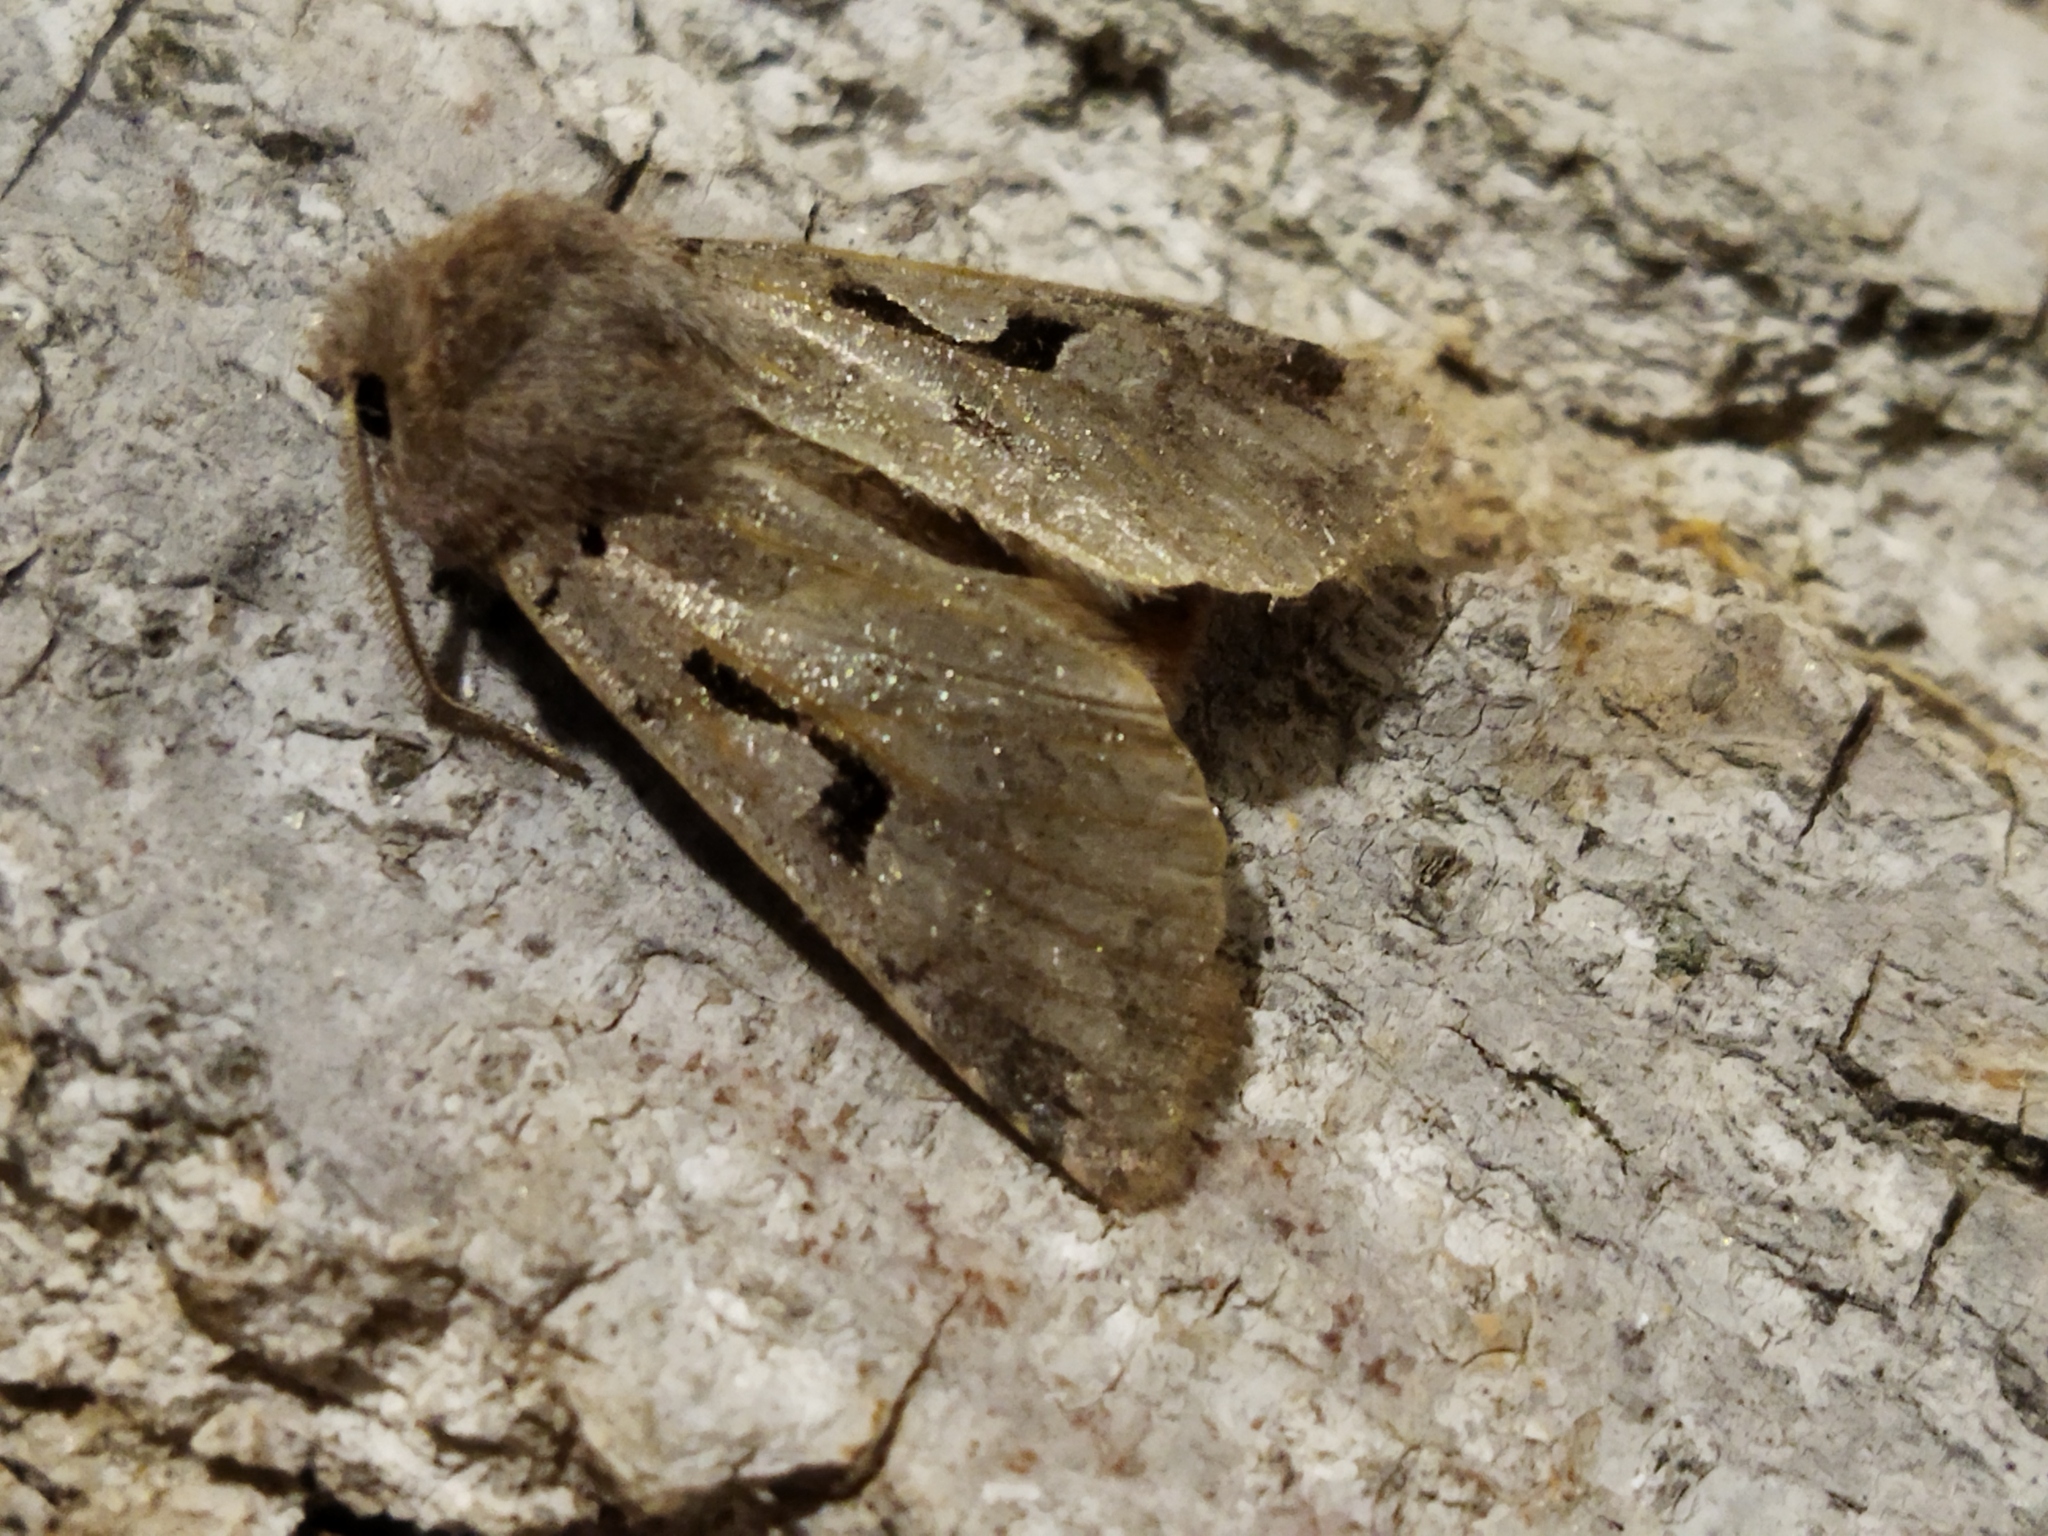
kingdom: Animalia
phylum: Arthropoda
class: Insecta
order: Lepidoptera
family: Noctuidae
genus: Orthosia
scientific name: Orthosia gothica
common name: Hebrew character
